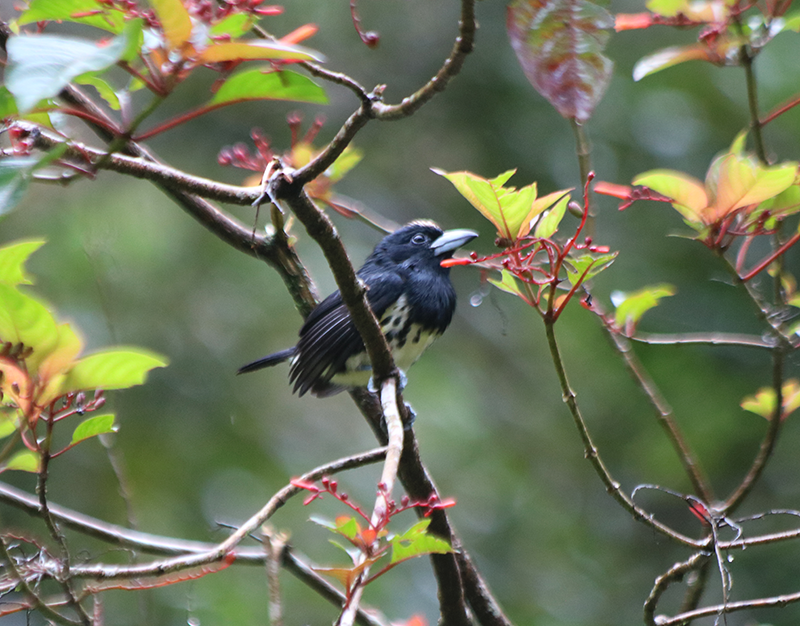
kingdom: Animalia
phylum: Chordata
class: Aves
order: Piciformes
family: Capitonidae
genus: Capito
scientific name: Capito maculicoronatus
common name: Spot-crowned barbet
